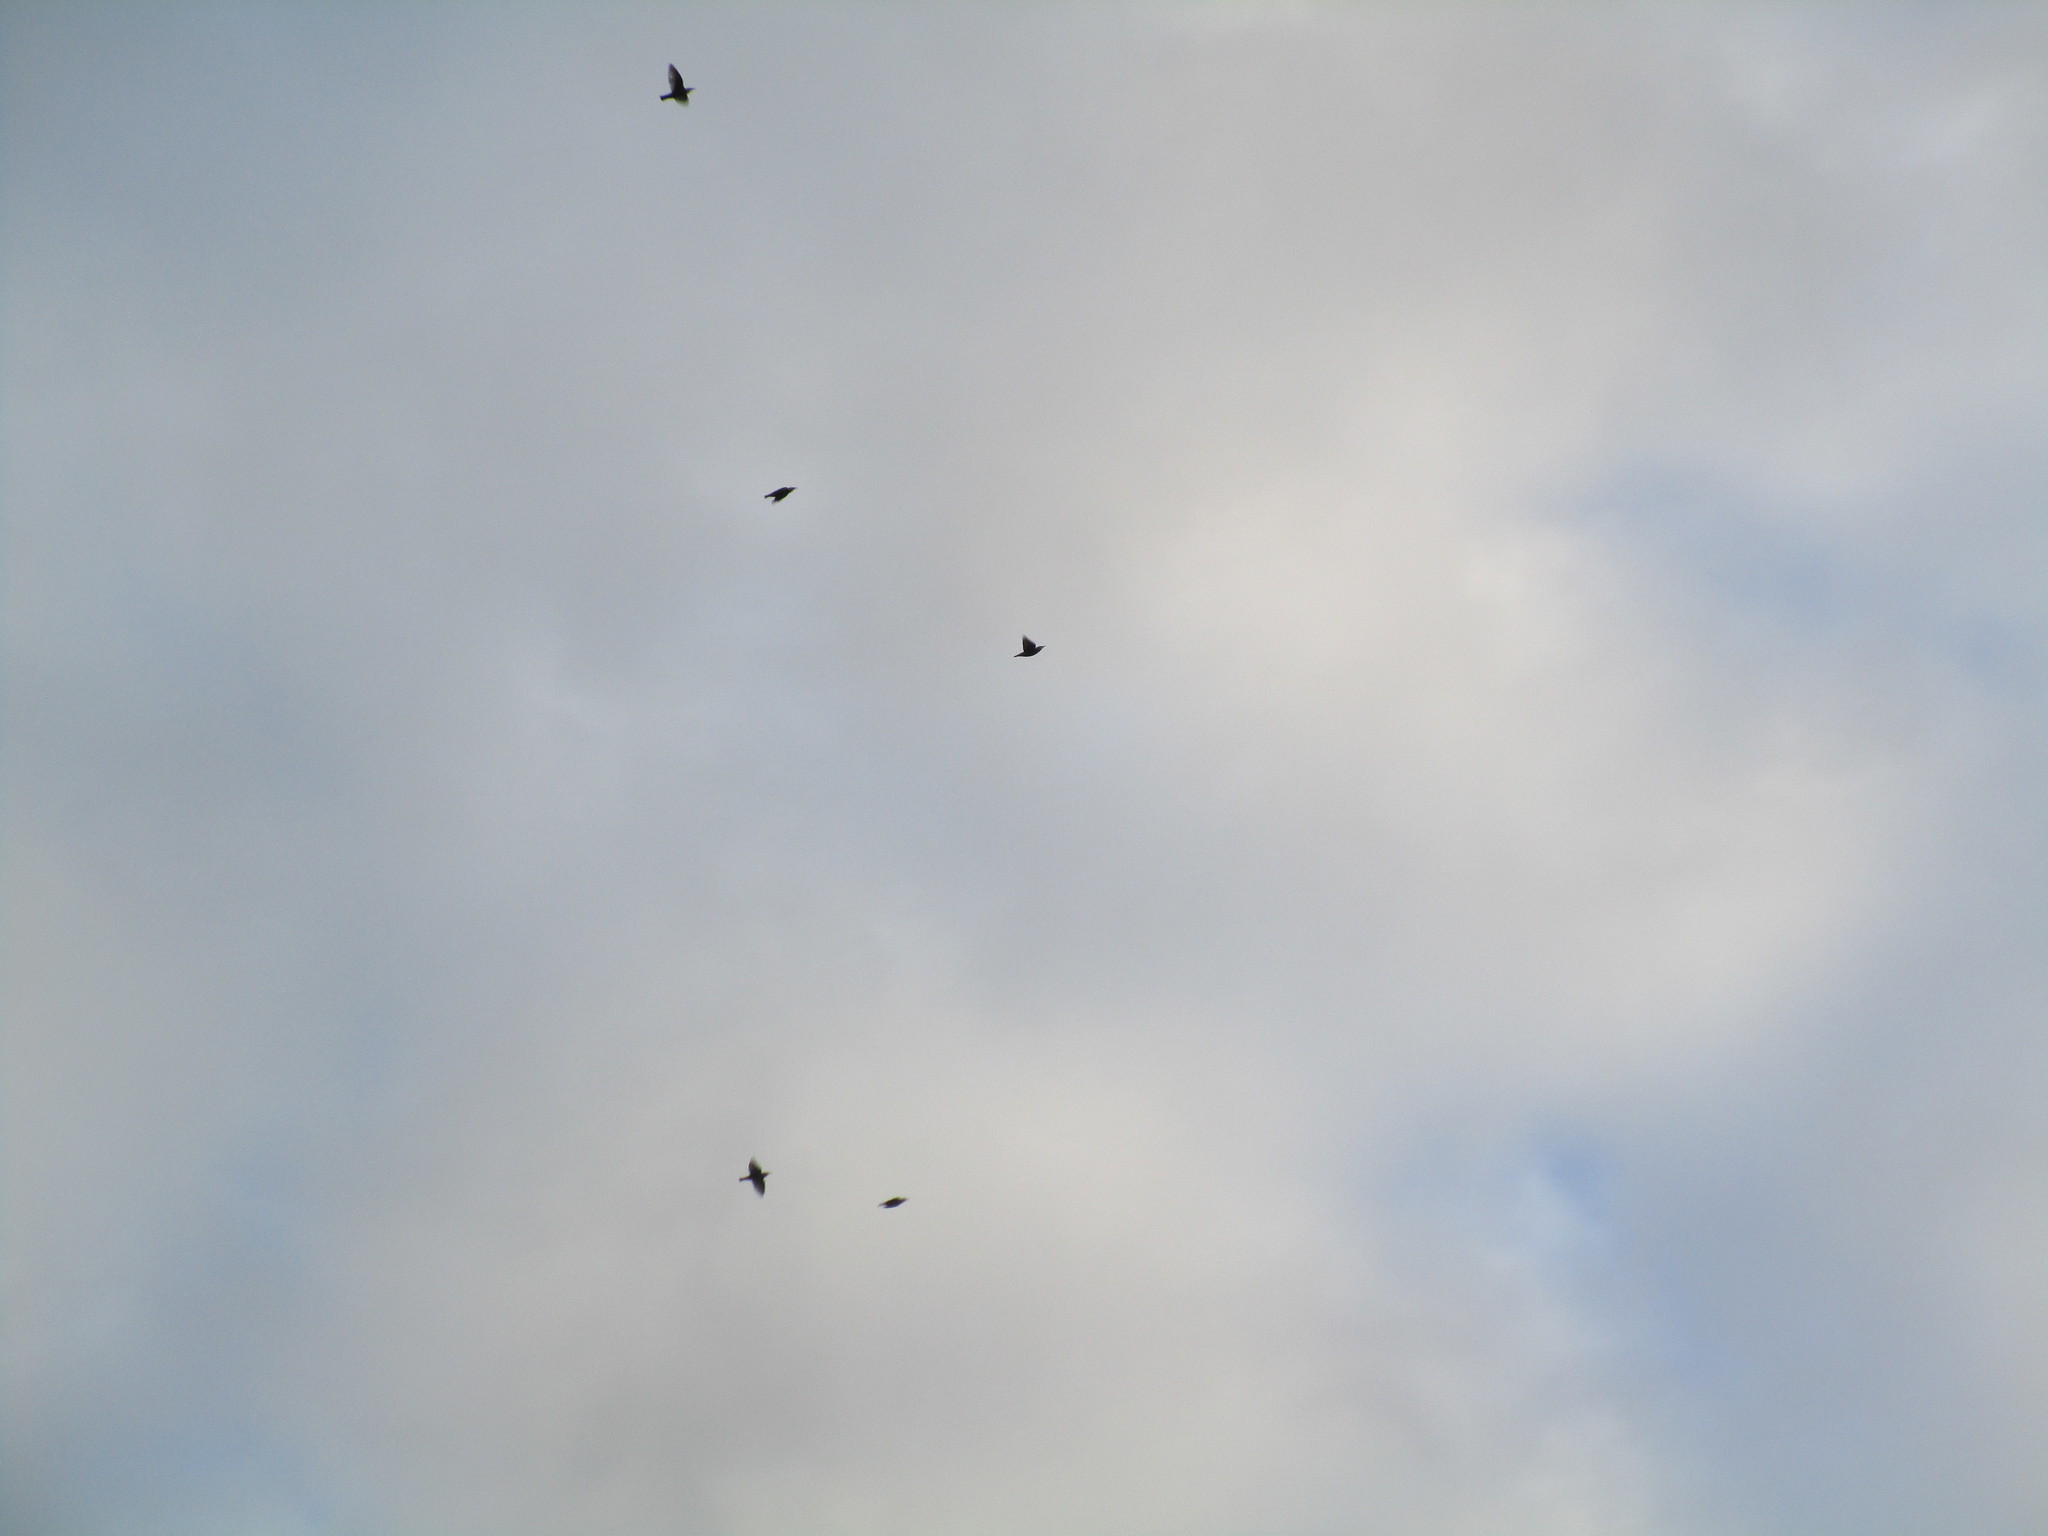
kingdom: Animalia
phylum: Chordata
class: Aves
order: Passeriformes
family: Sturnidae
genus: Sturnus
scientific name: Sturnus vulgaris
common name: Common starling
